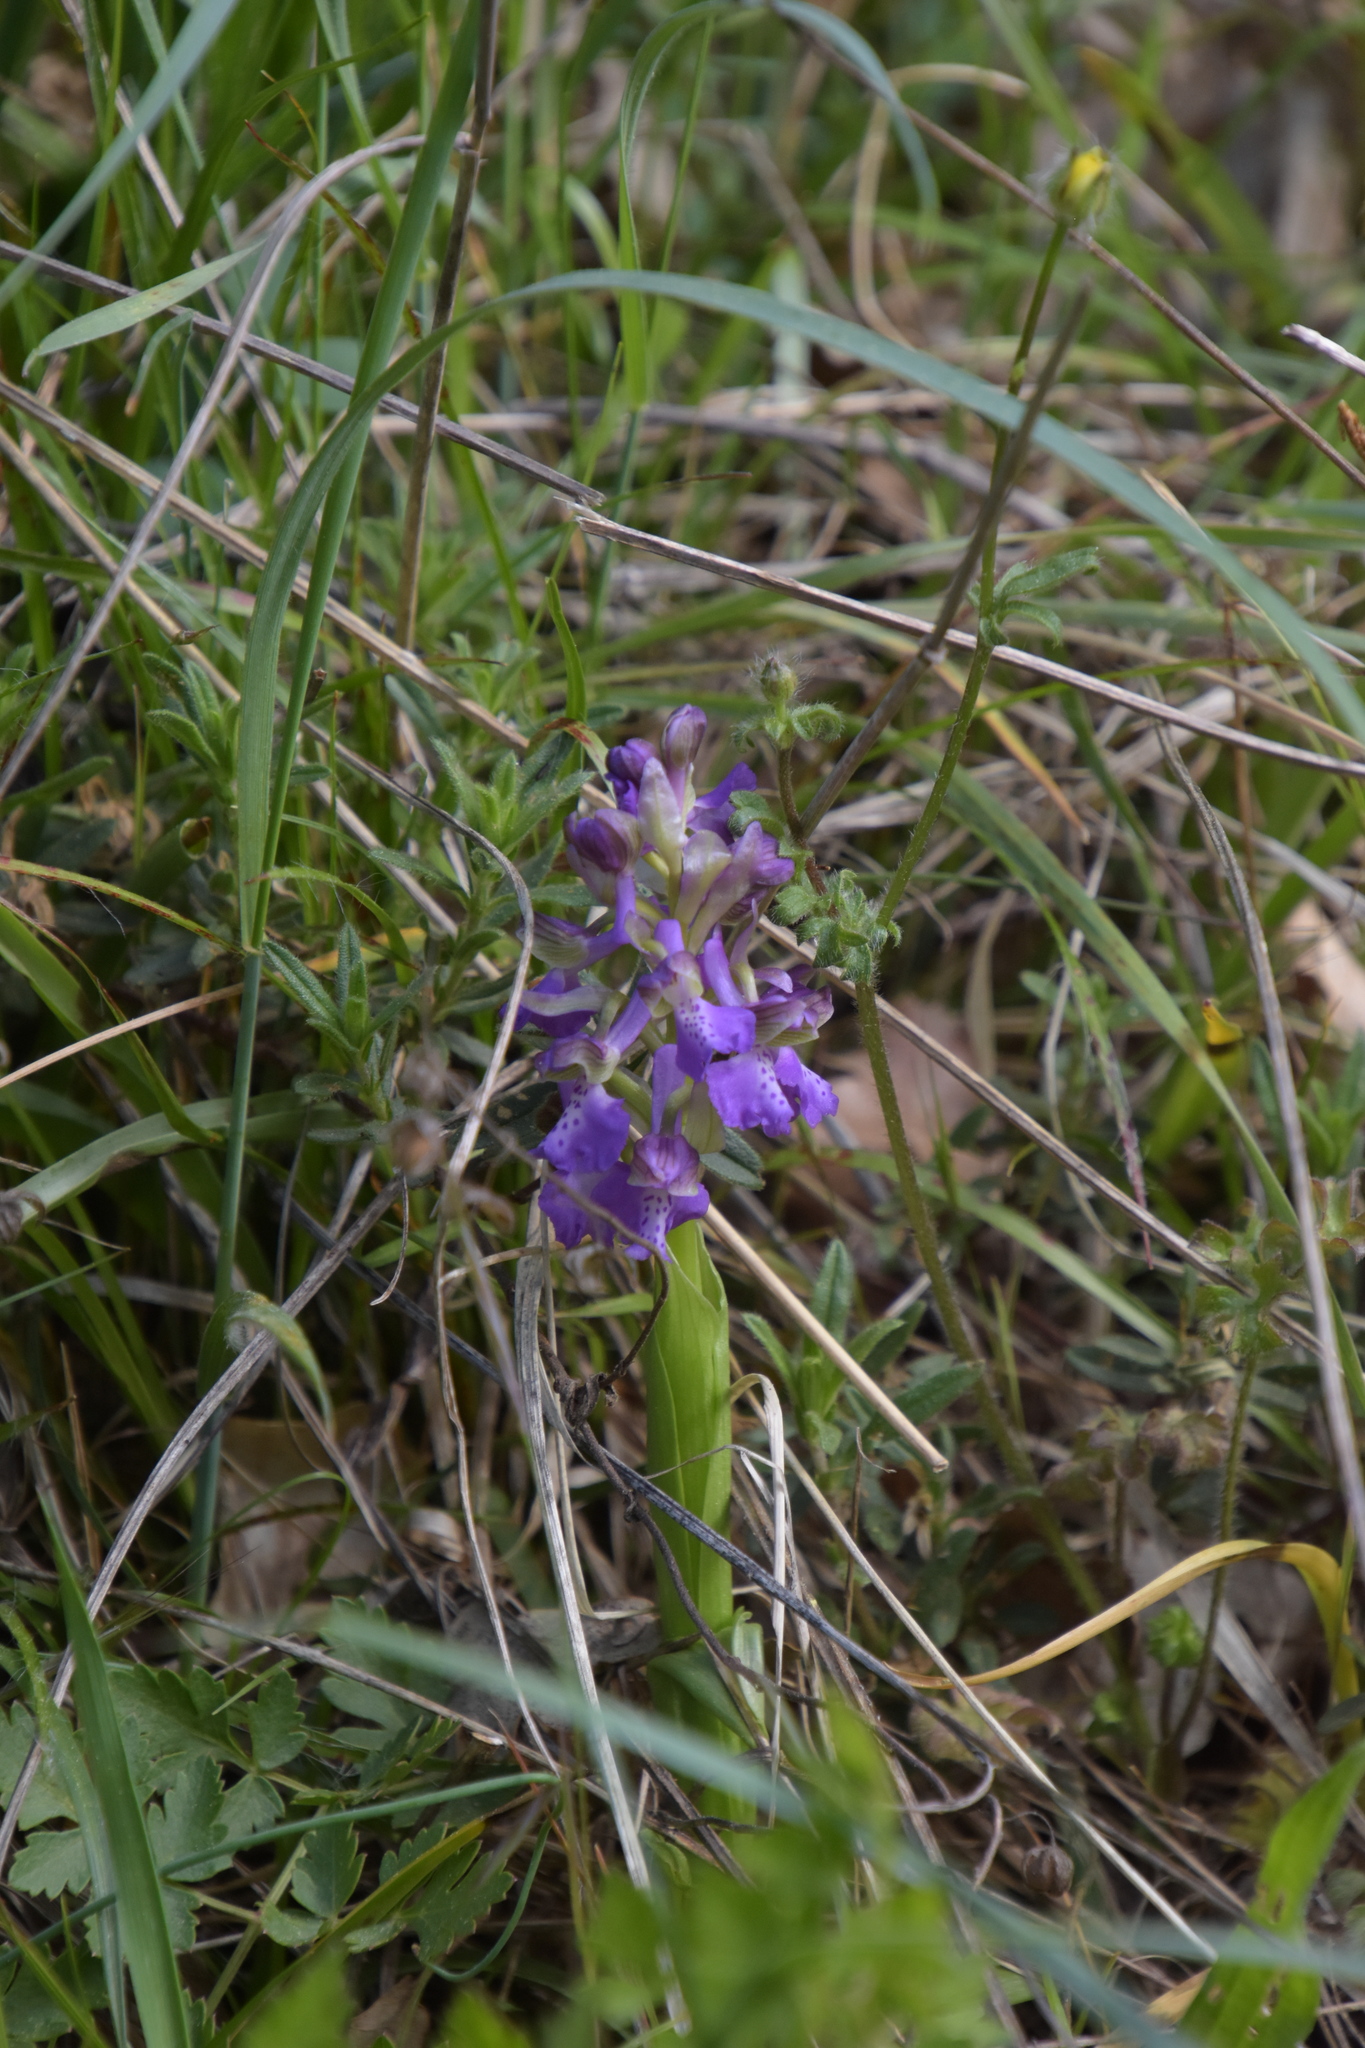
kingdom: Plantae
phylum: Tracheophyta
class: Liliopsida
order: Asparagales
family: Orchidaceae
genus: Anacamptis
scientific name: Anacamptis morio
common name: Green-winged orchid
